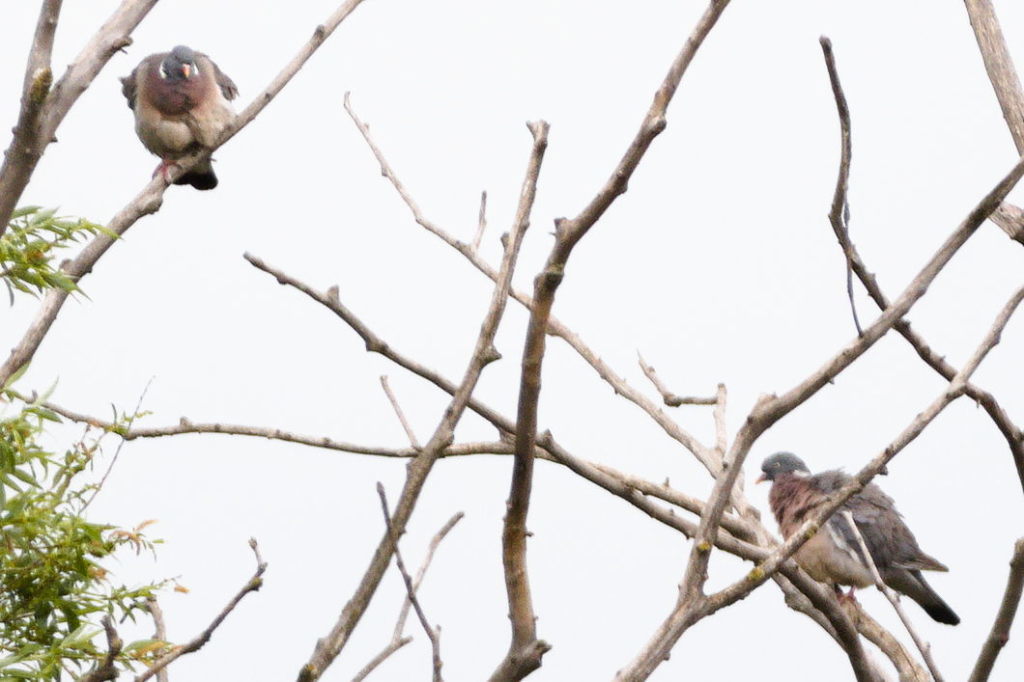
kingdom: Animalia
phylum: Chordata
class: Aves
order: Columbiformes
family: Columbidae
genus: Columba
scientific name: Columba palumbus
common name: Common wood pigeon
